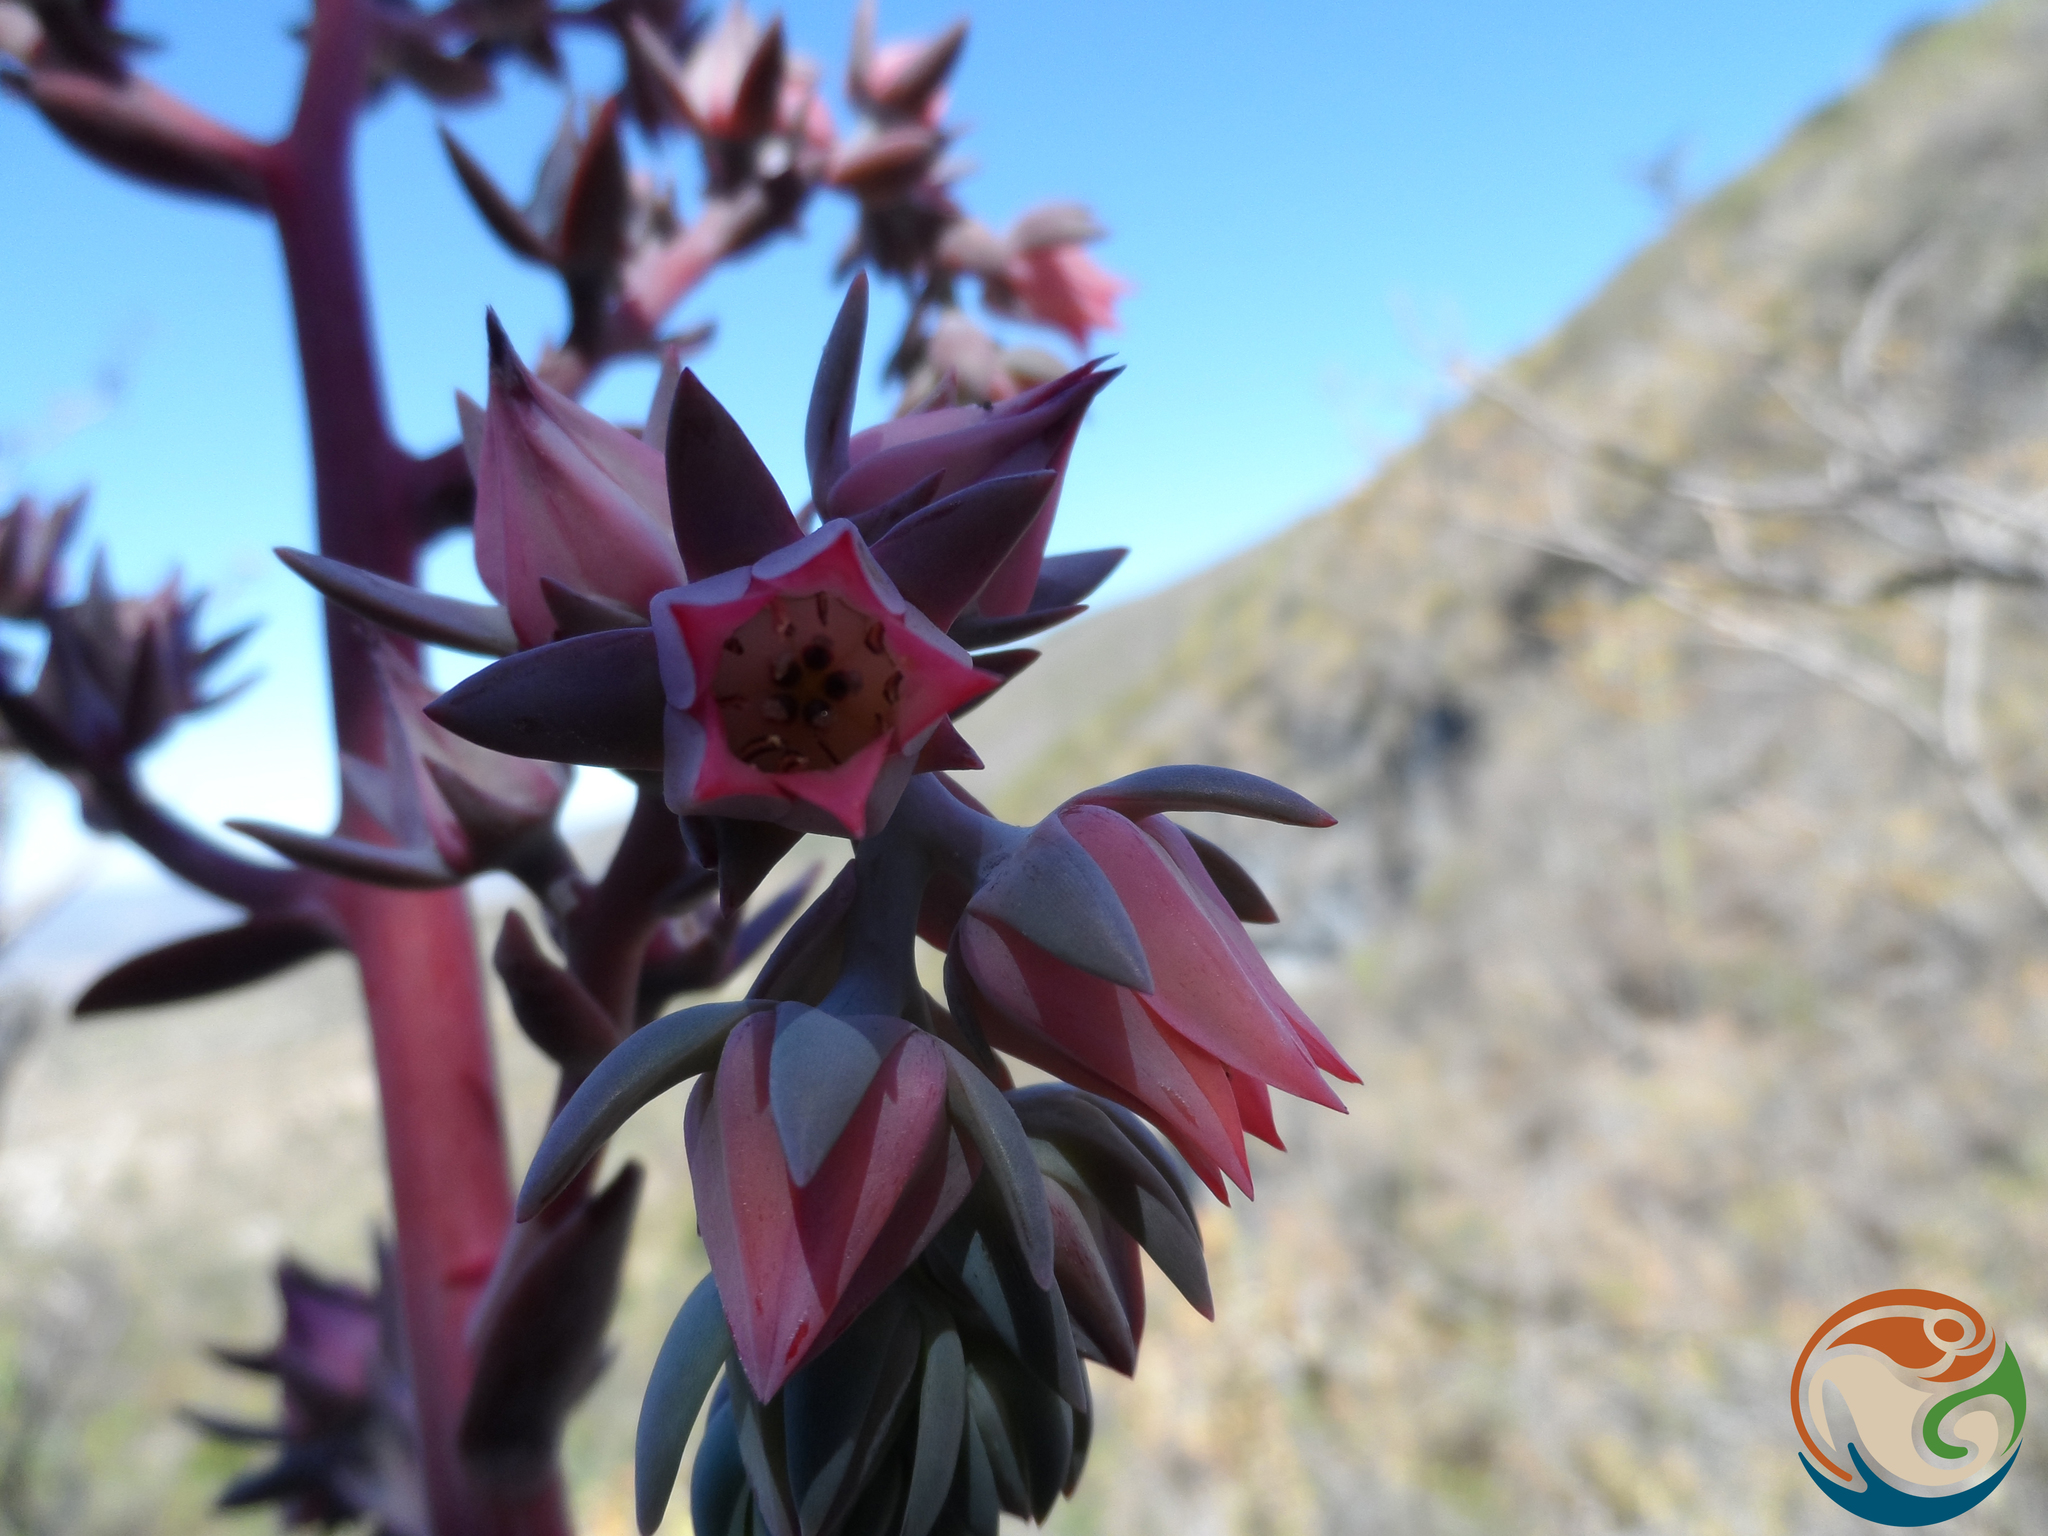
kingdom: Plantae
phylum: Tracheophyta
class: Magnoliopsida
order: Saxifragales
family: Crassulaceae
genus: Echeveria
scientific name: Echeveria gibbiflora
